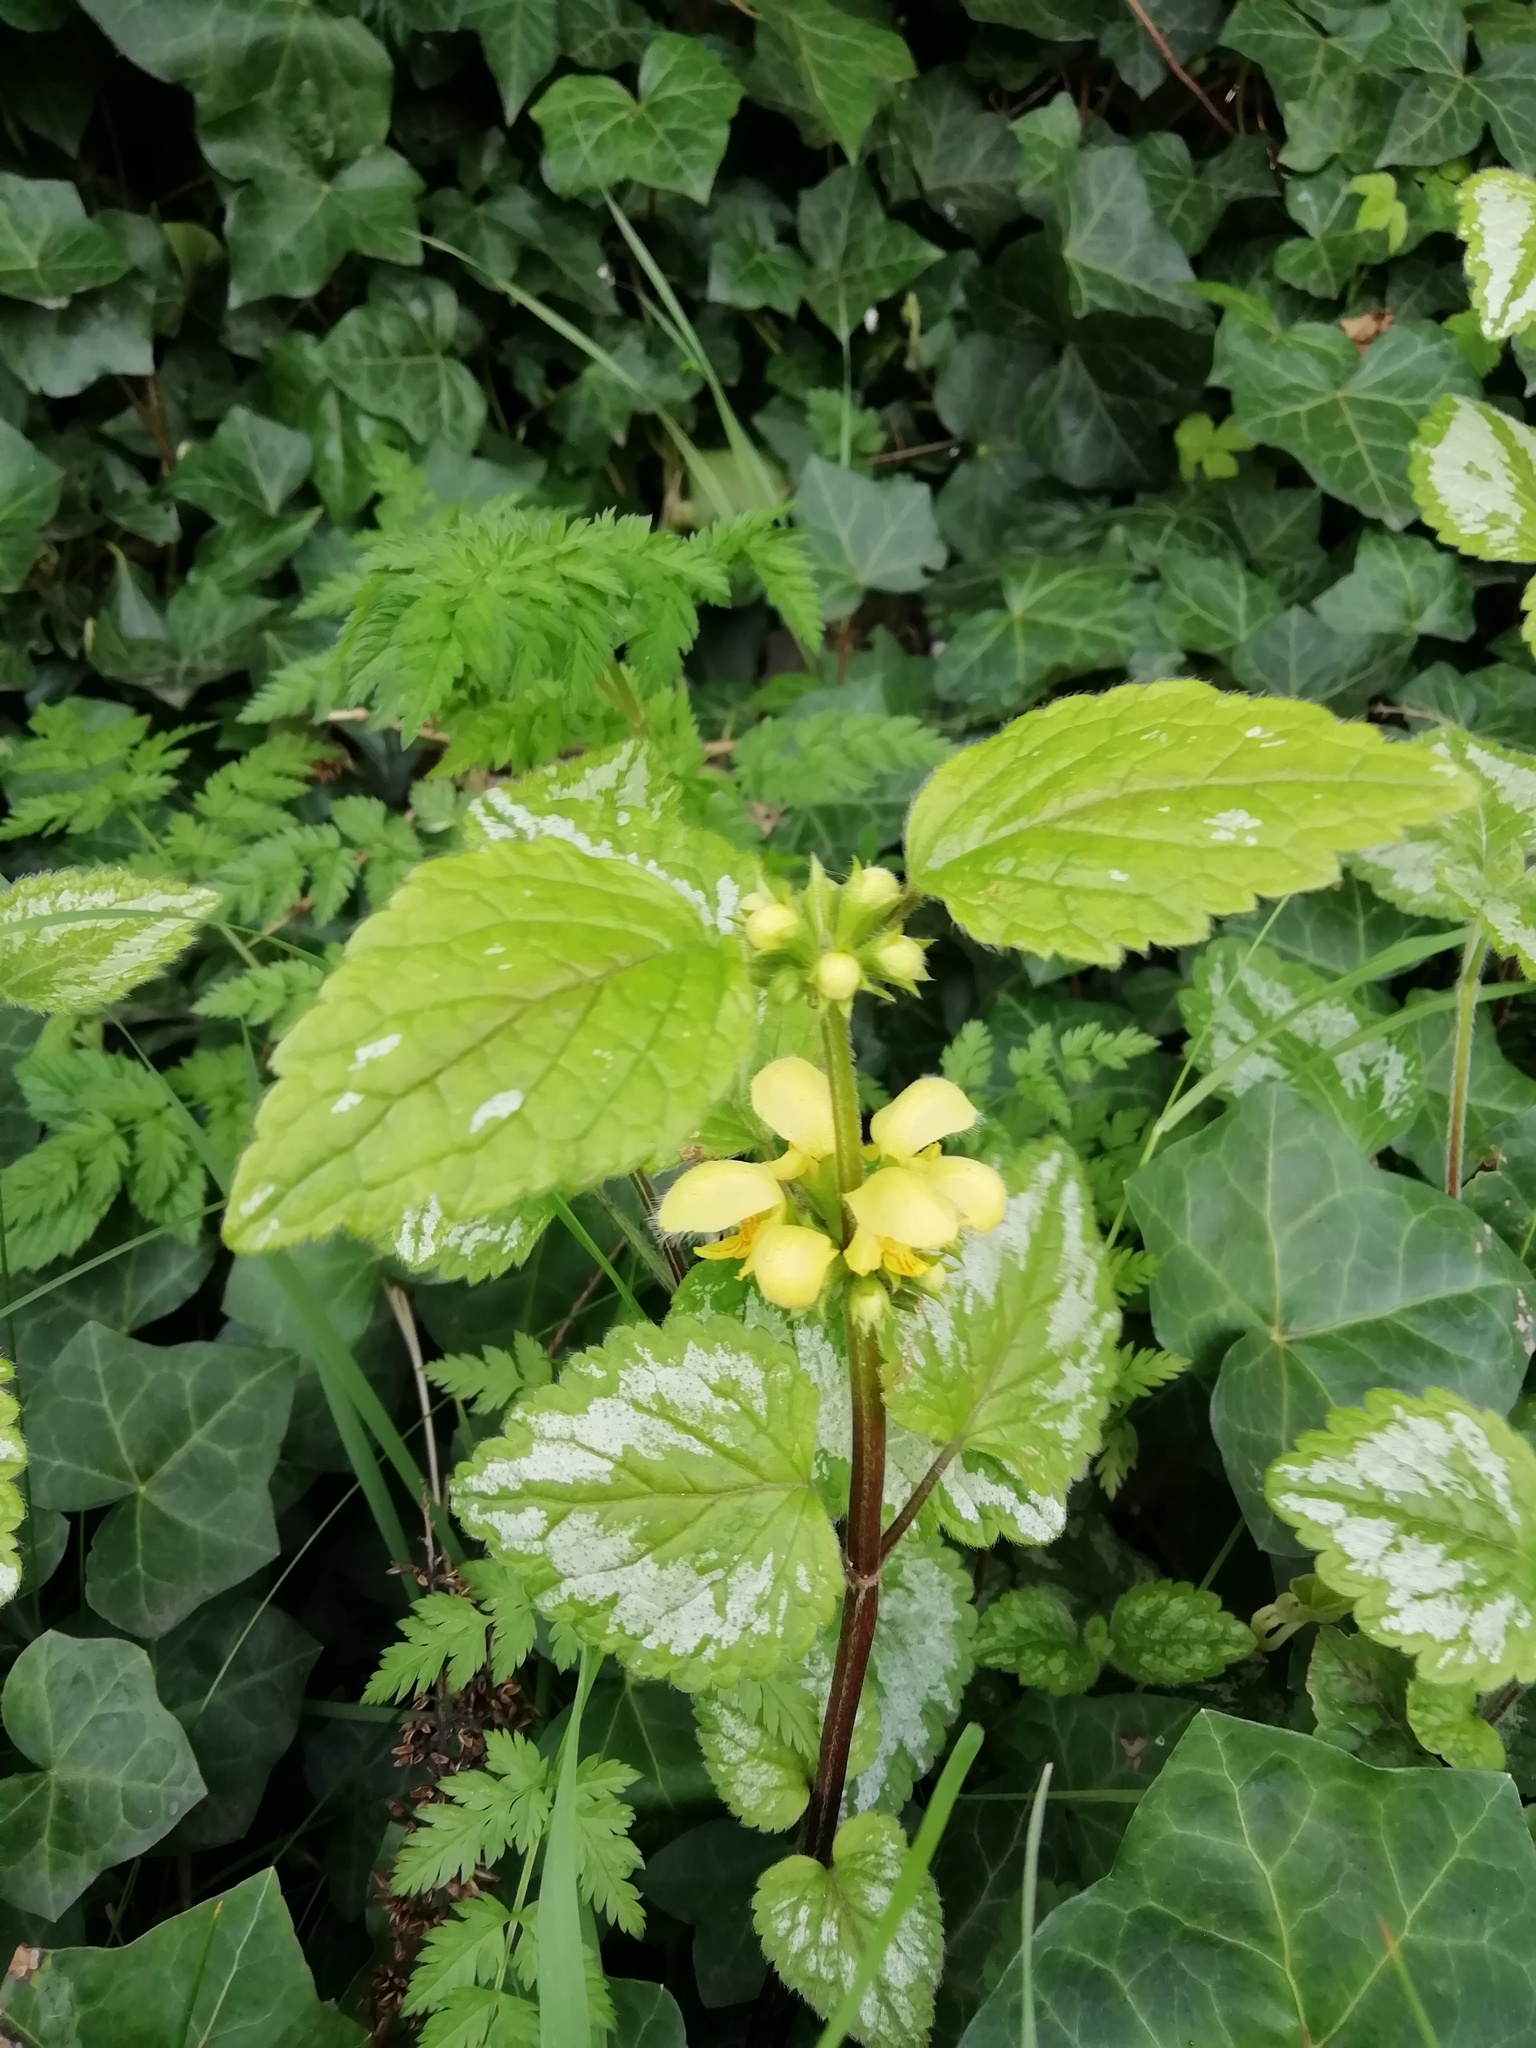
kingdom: Plantae
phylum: Tracheophyta
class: Magnoliopsida
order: Lamiales
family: Lamiaceae
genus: Lamium
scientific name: Lamium galeobdolon
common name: Yellow archangel
